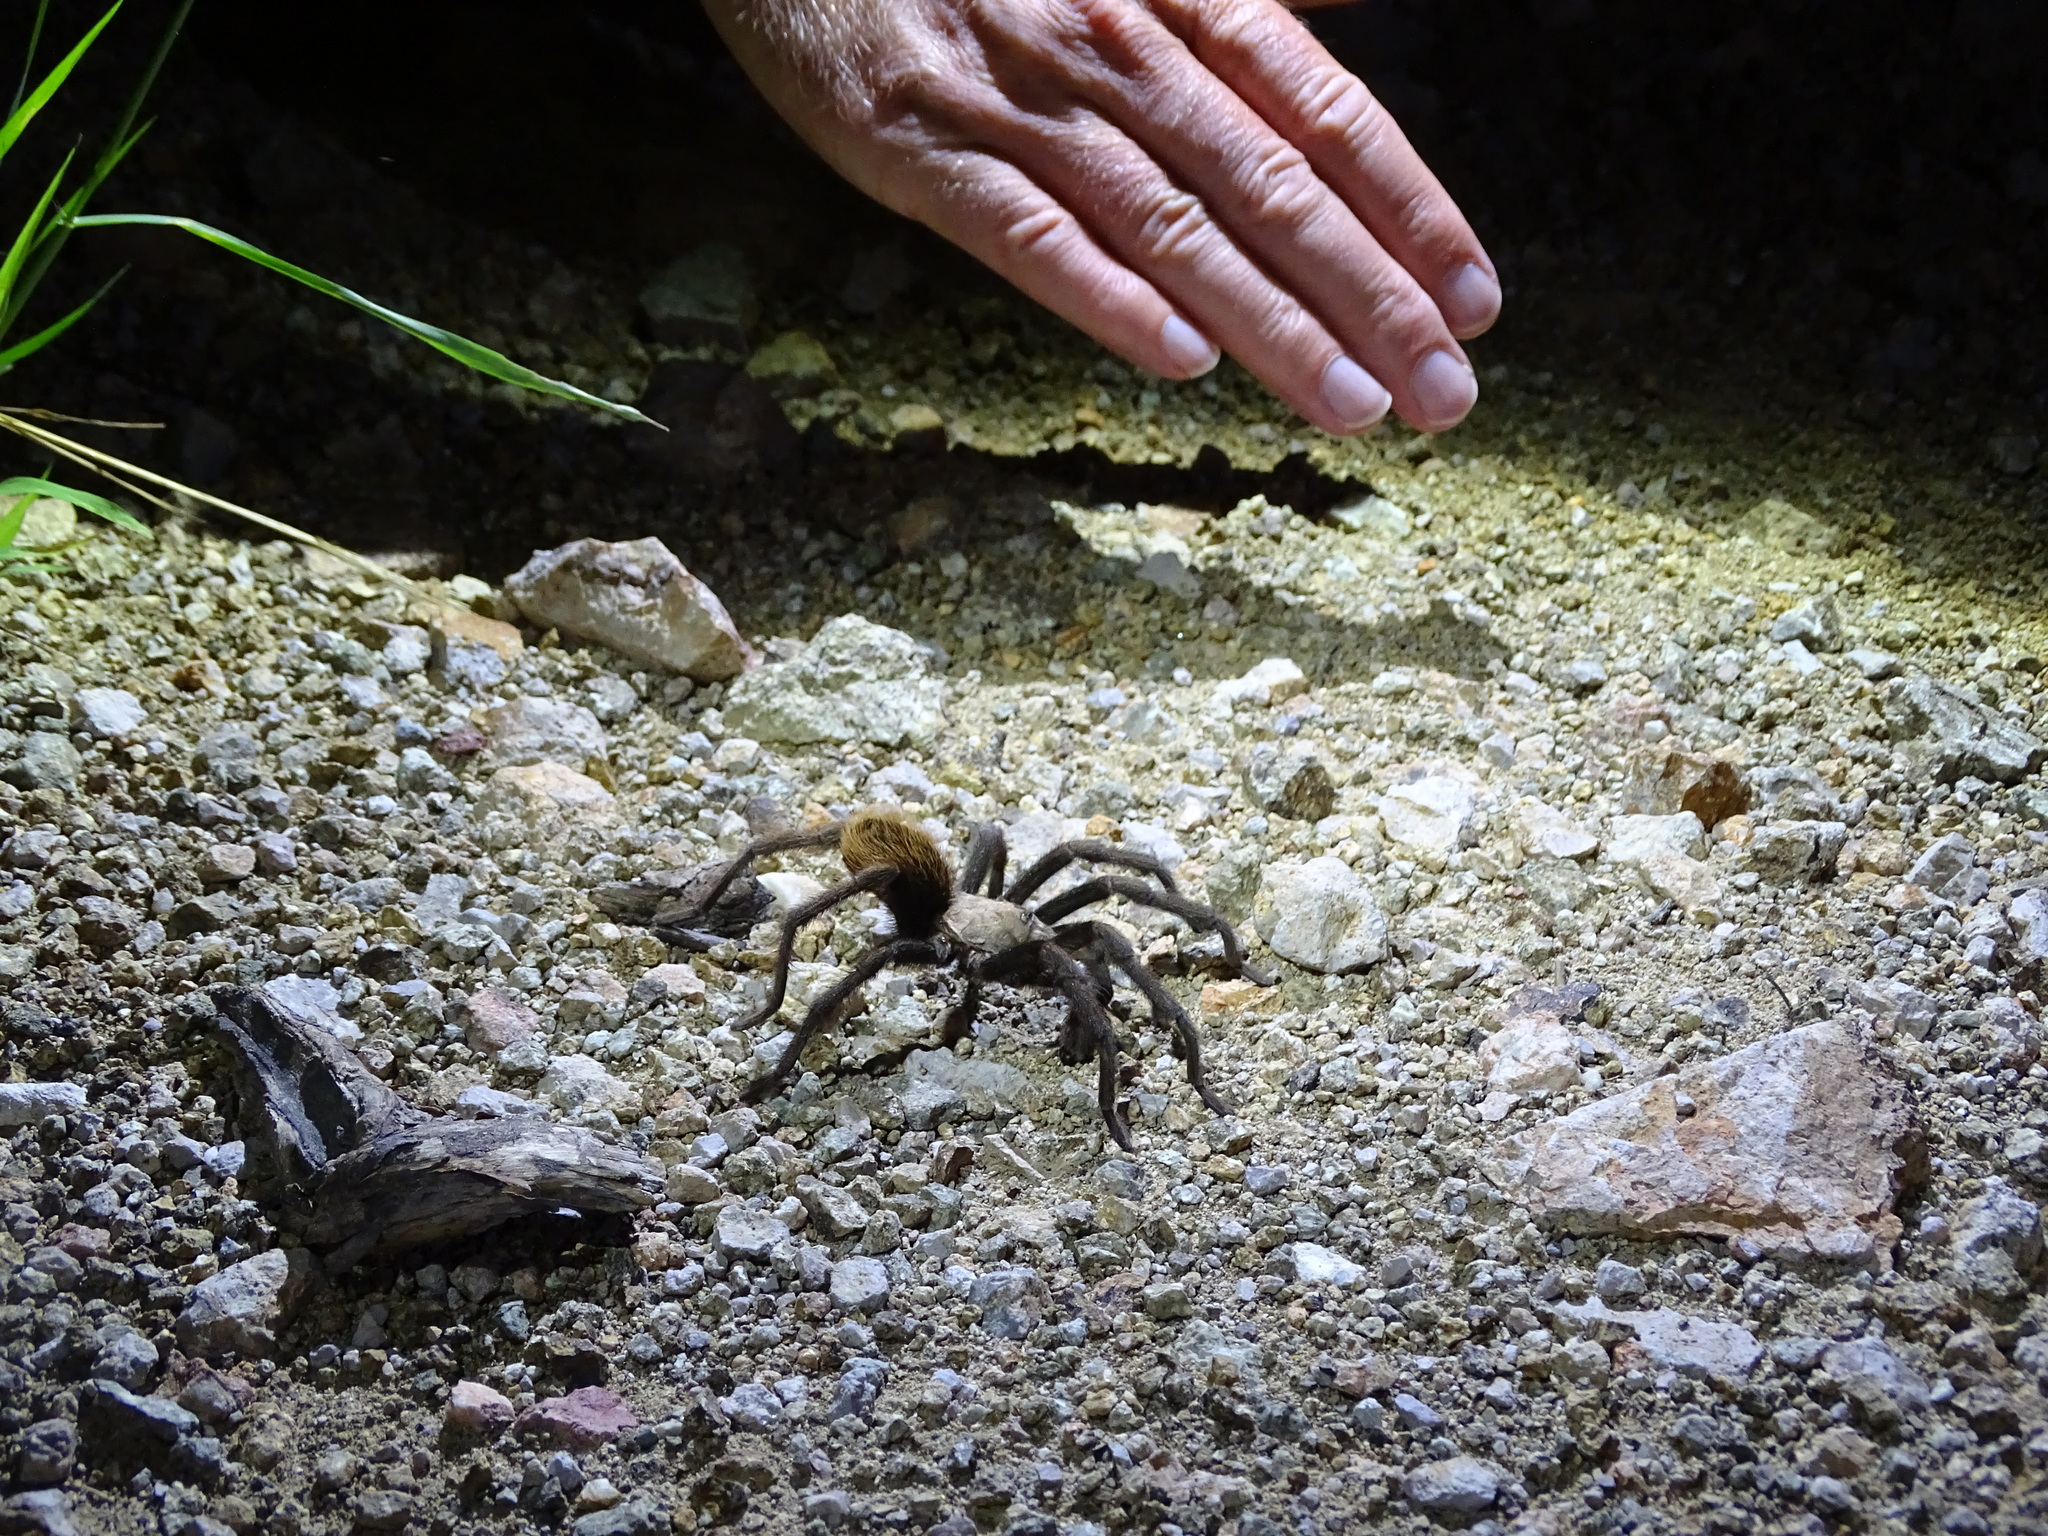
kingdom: Animalia
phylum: Arthropoda
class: Arachnida
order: Araneae
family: Theraphosidae
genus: Aphonopelma
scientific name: Aphonopelma chalcodes
